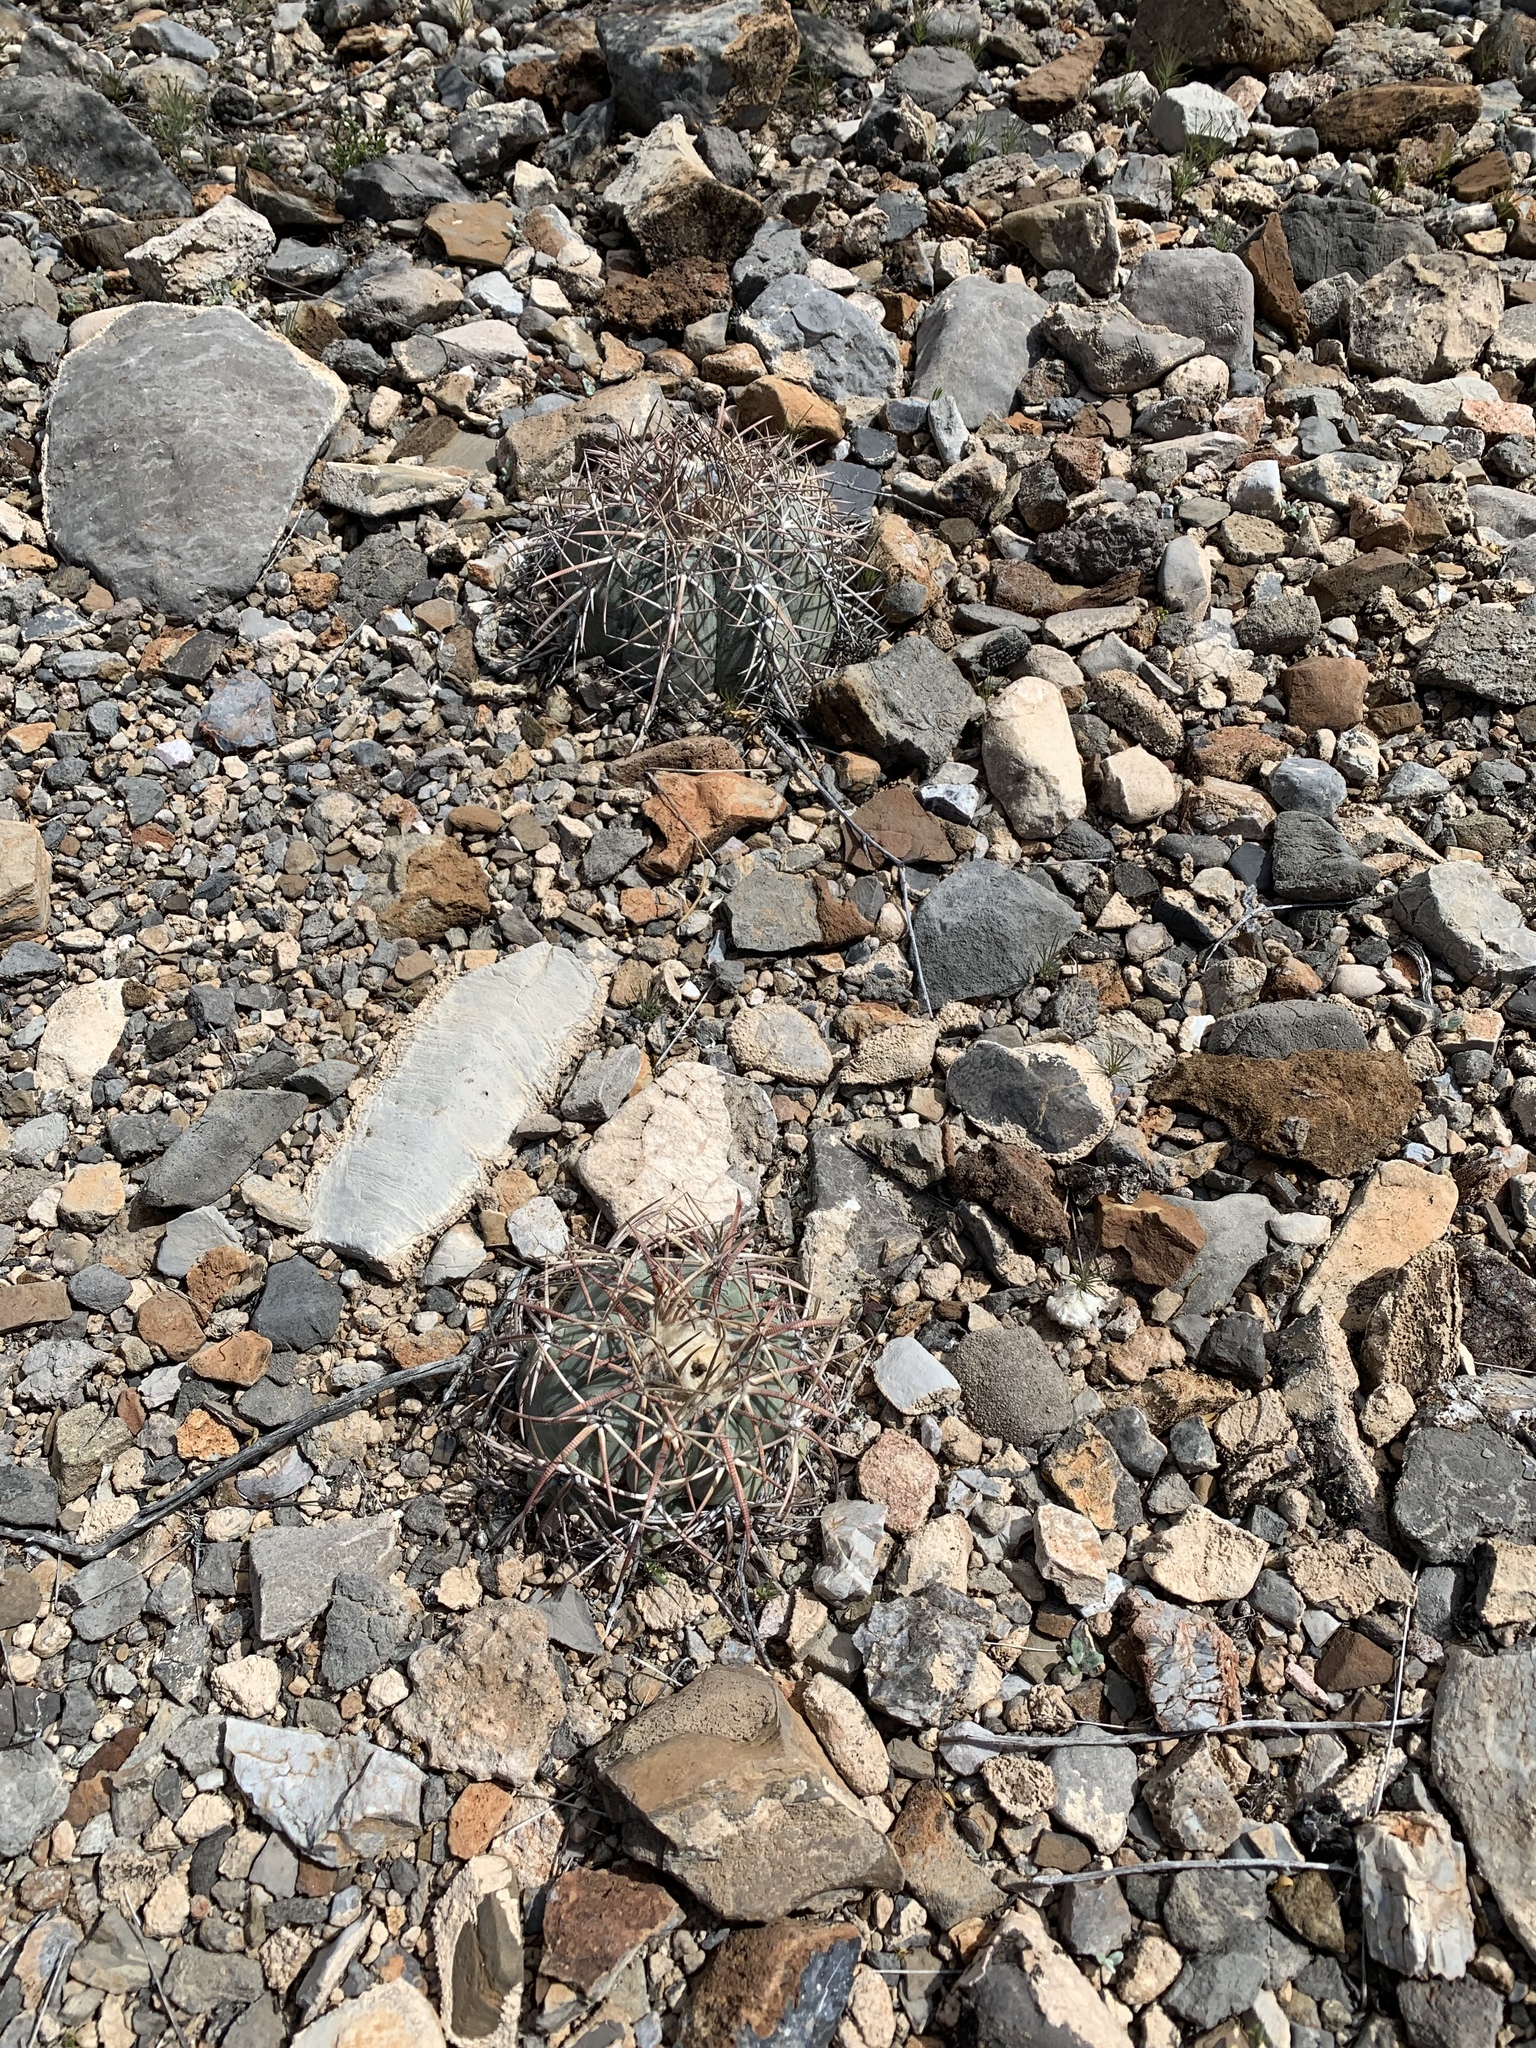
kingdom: Plantae
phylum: Tracheophyta
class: Magnoliopsida
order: Caryophyllales
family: Cactaceae
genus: Echinocactus
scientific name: Echinocactus horizonthalonius
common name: Devilshead
